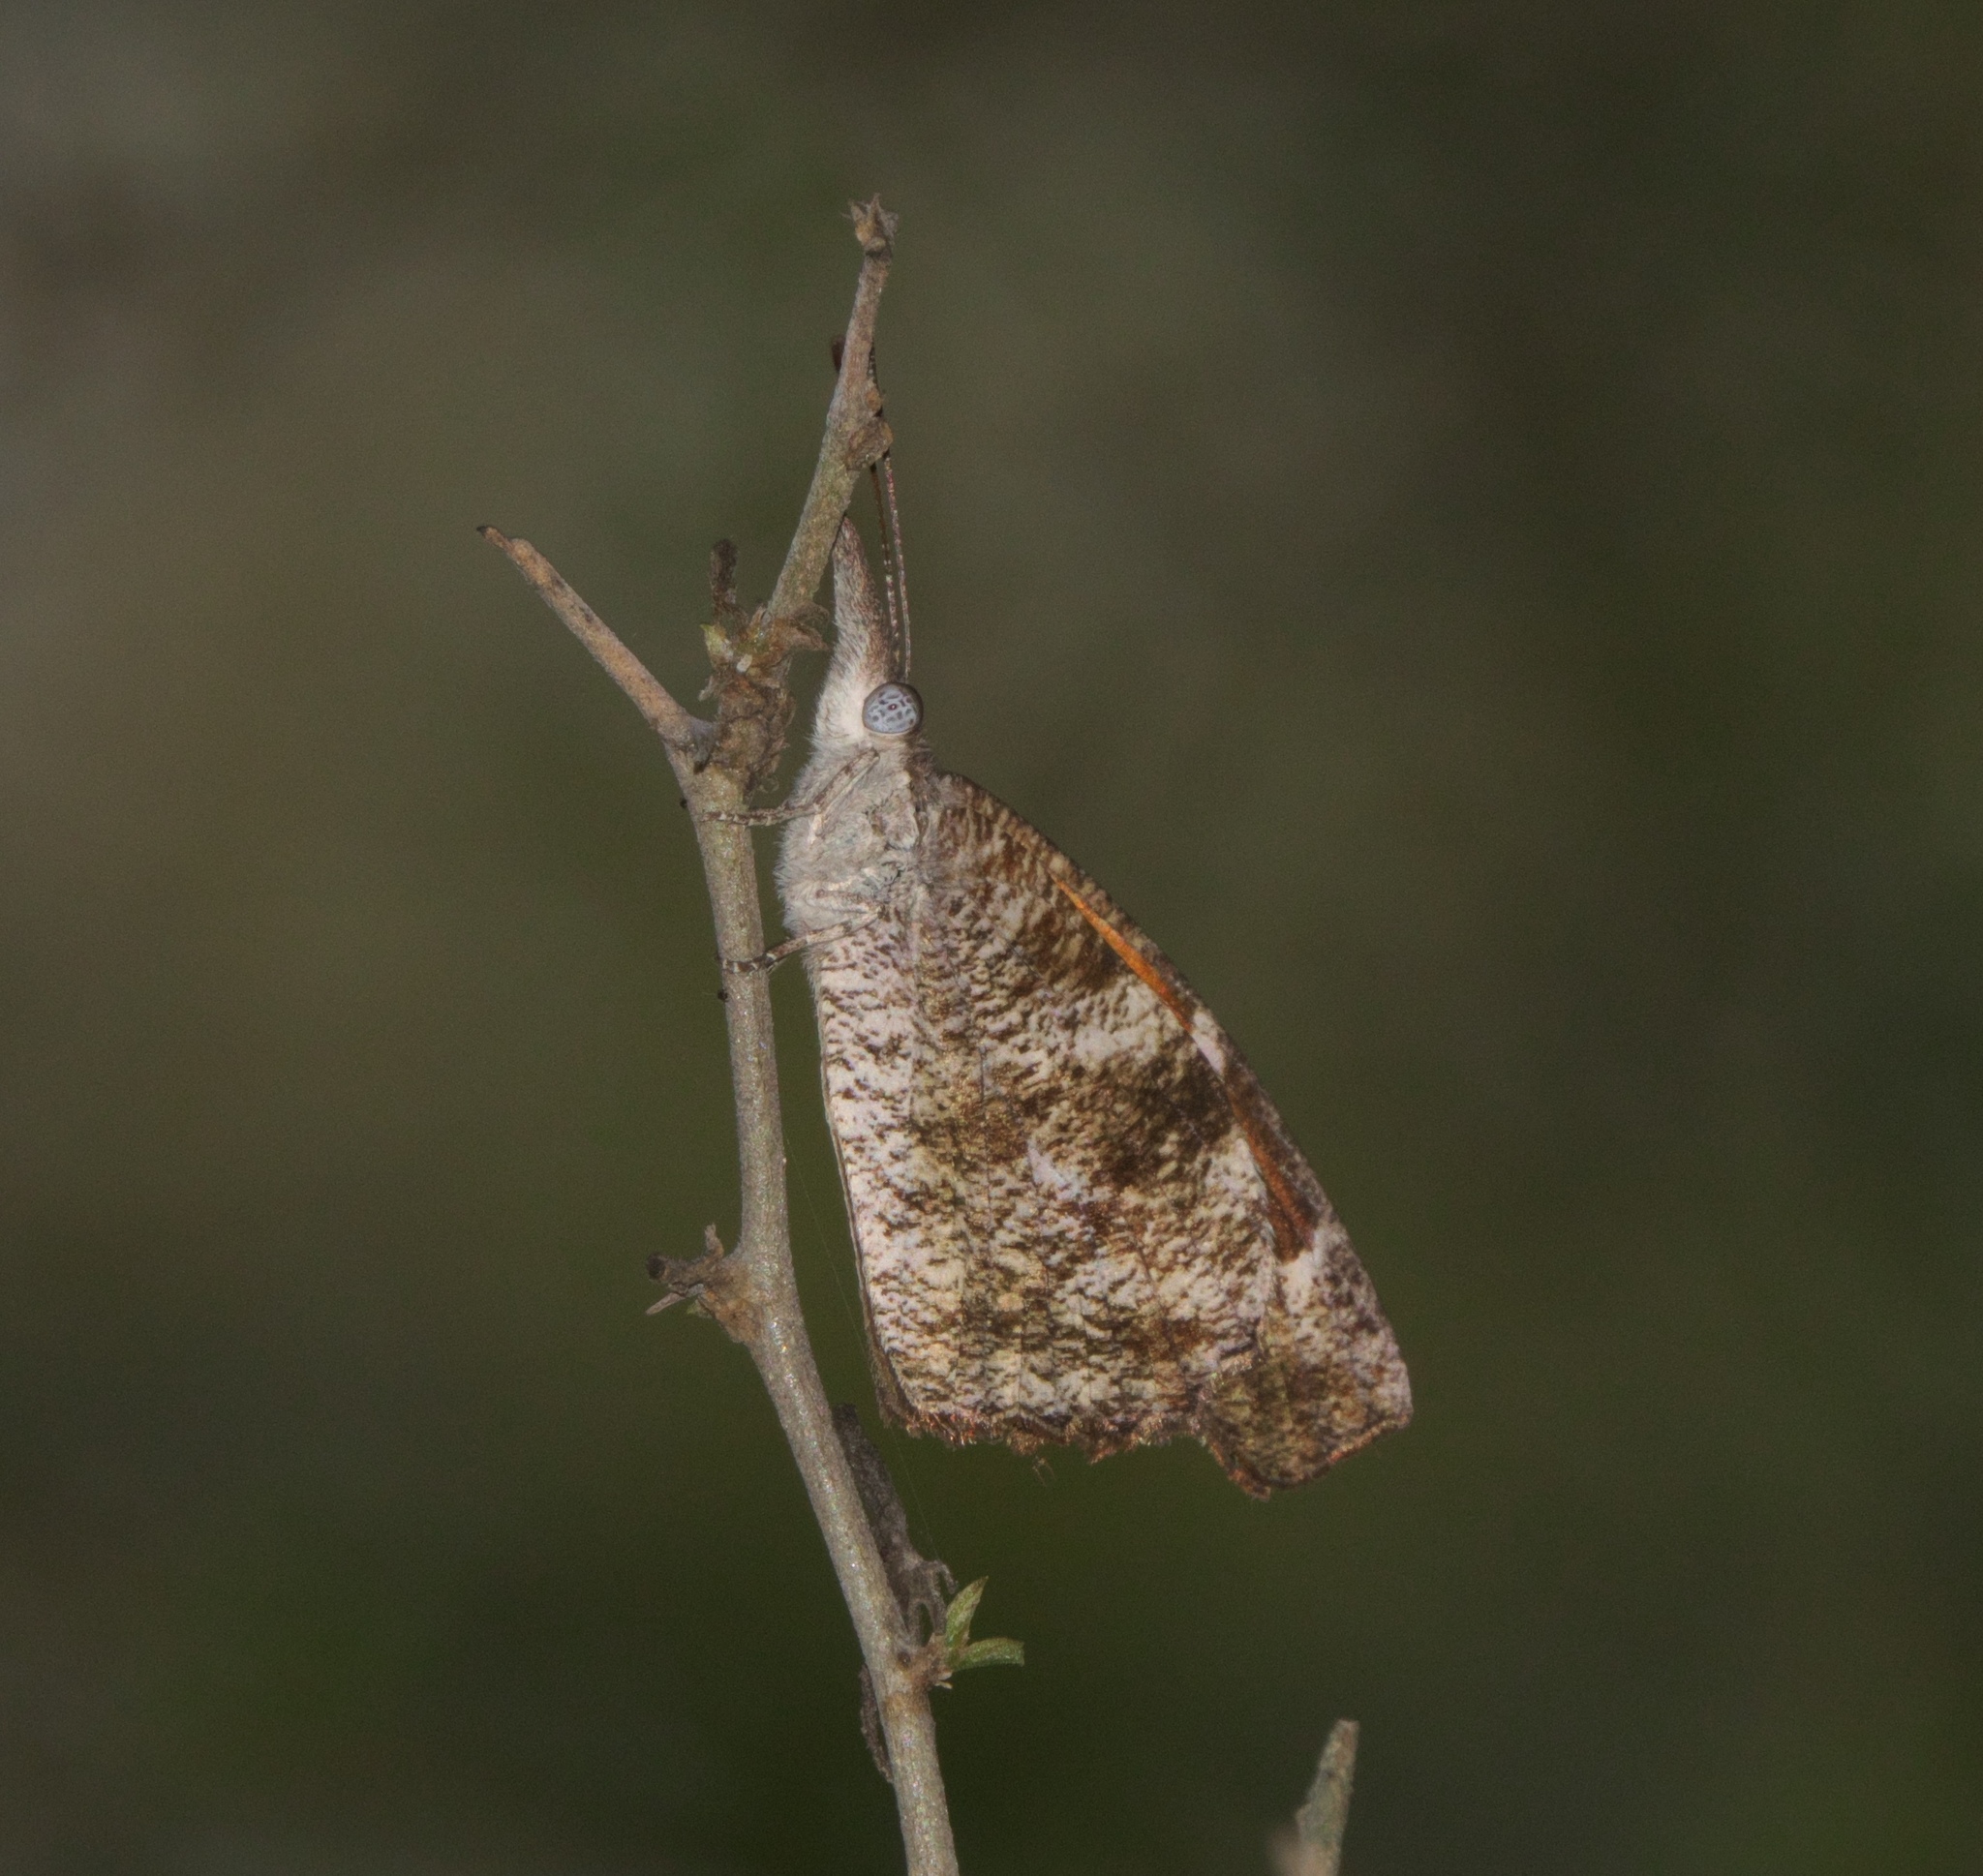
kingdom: Animalia
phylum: Arthropoda
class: Insecta
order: Lepidoptera
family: Nymphalidae
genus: Libytheana
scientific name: Libytheana carinenta
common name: American snout
